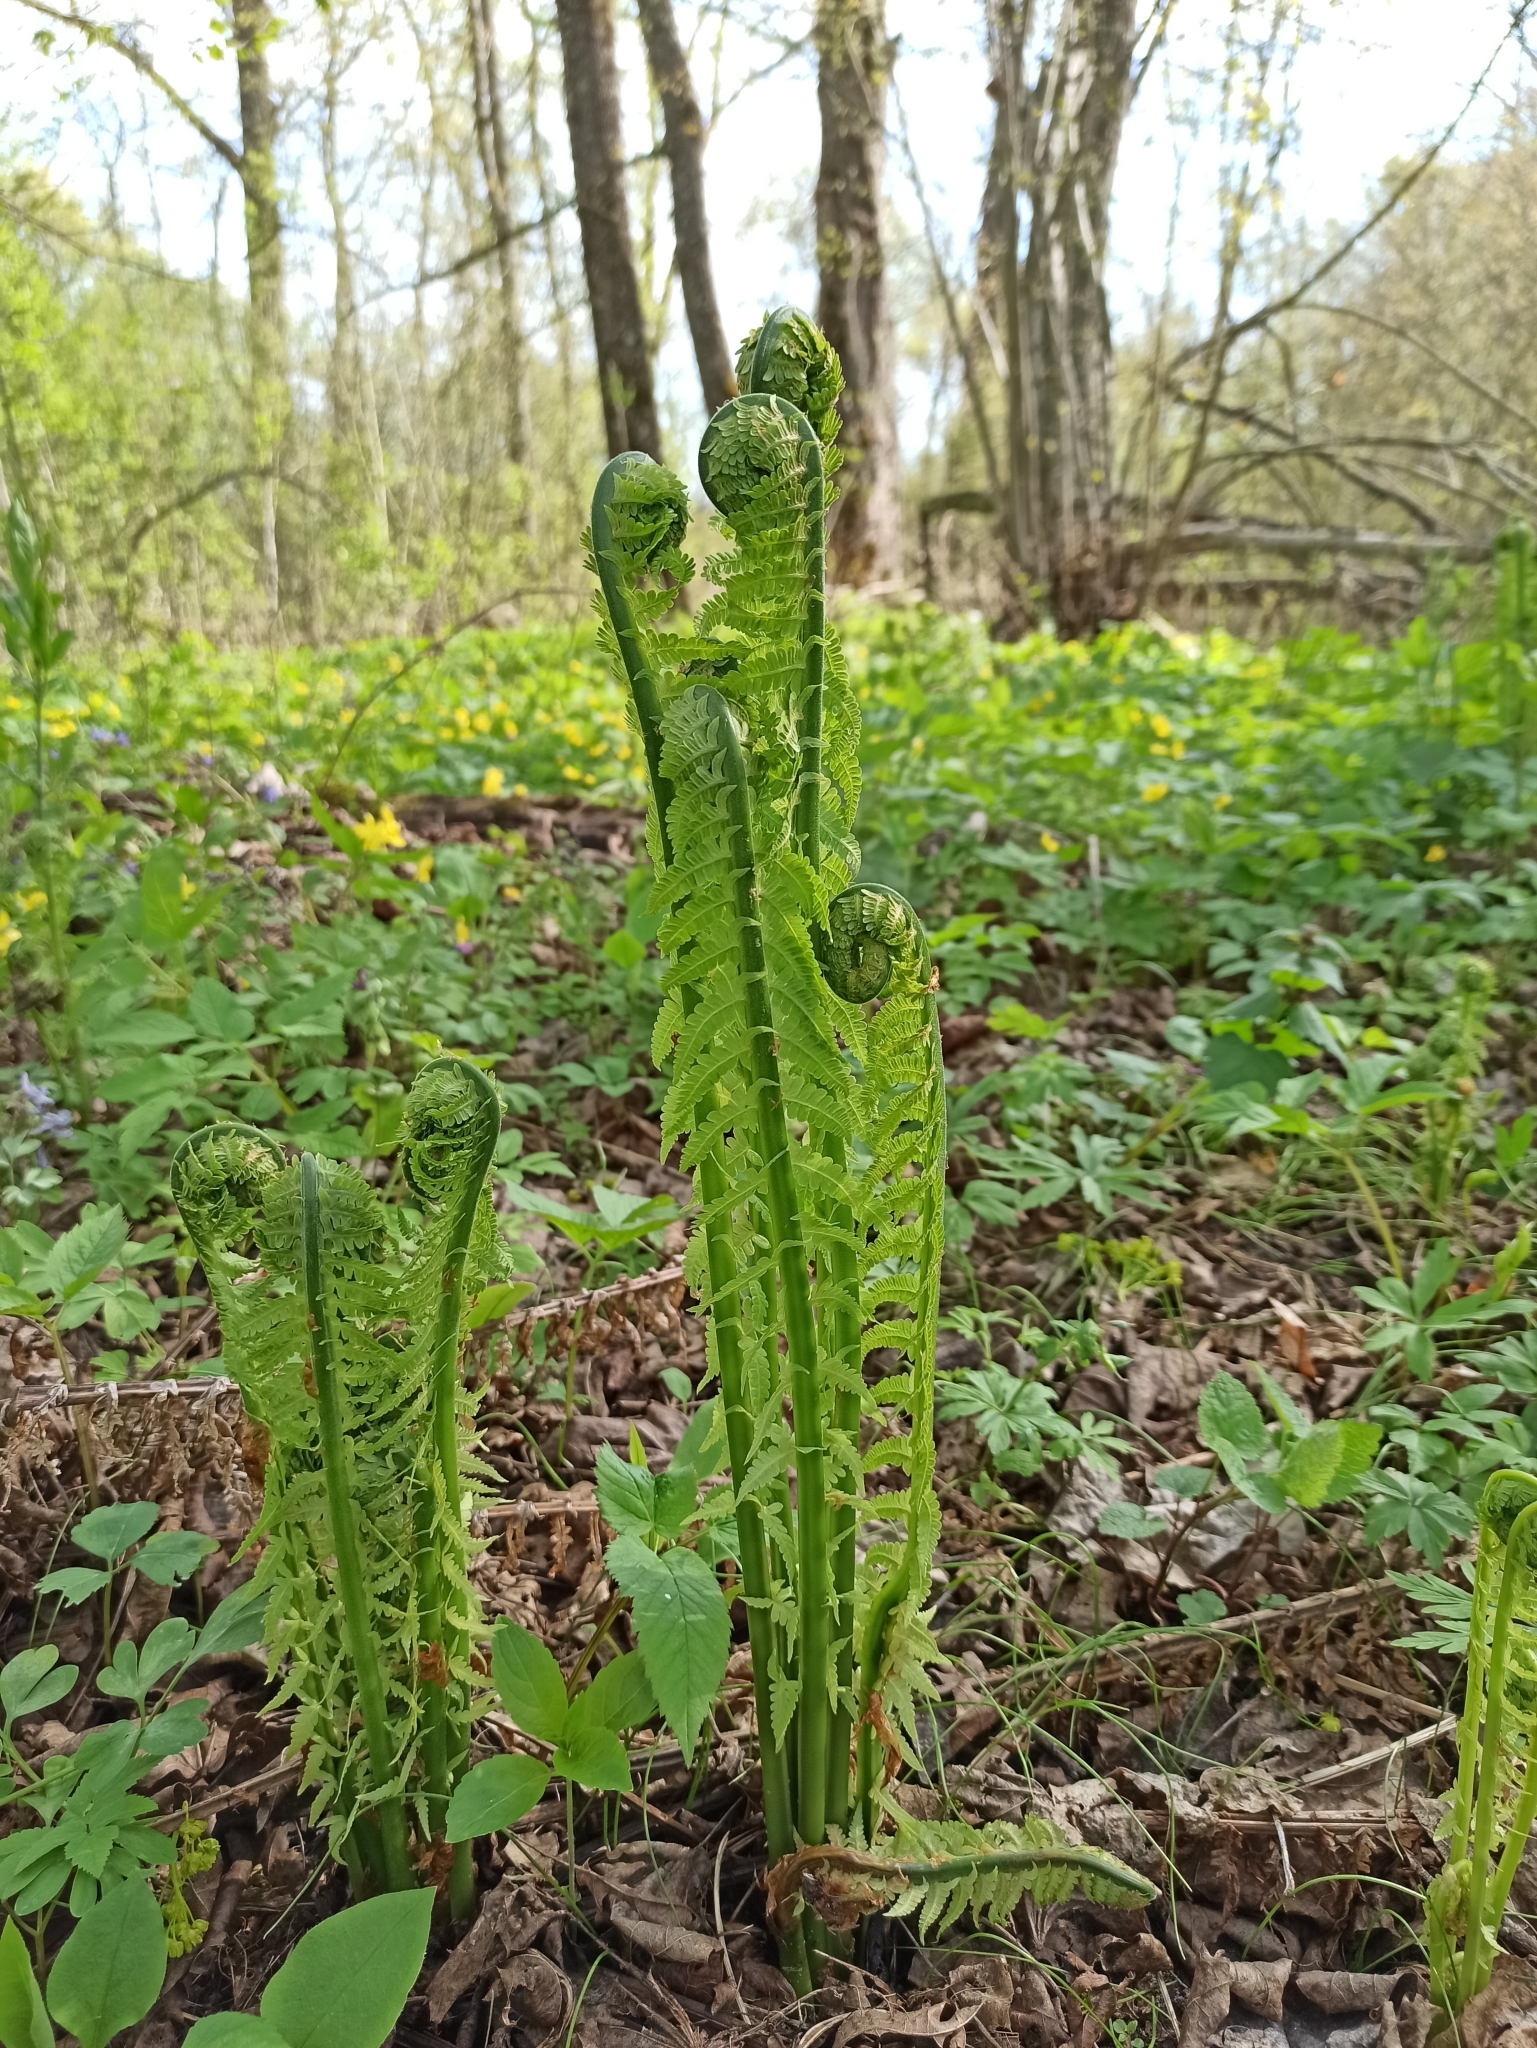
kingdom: Plantae
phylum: Tracheophyta
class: Polypodiopsida
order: Polypodiales
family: Onocleaceae
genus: Matteuccia
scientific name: Matteuccia struthiopteris
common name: Ostrich fern
